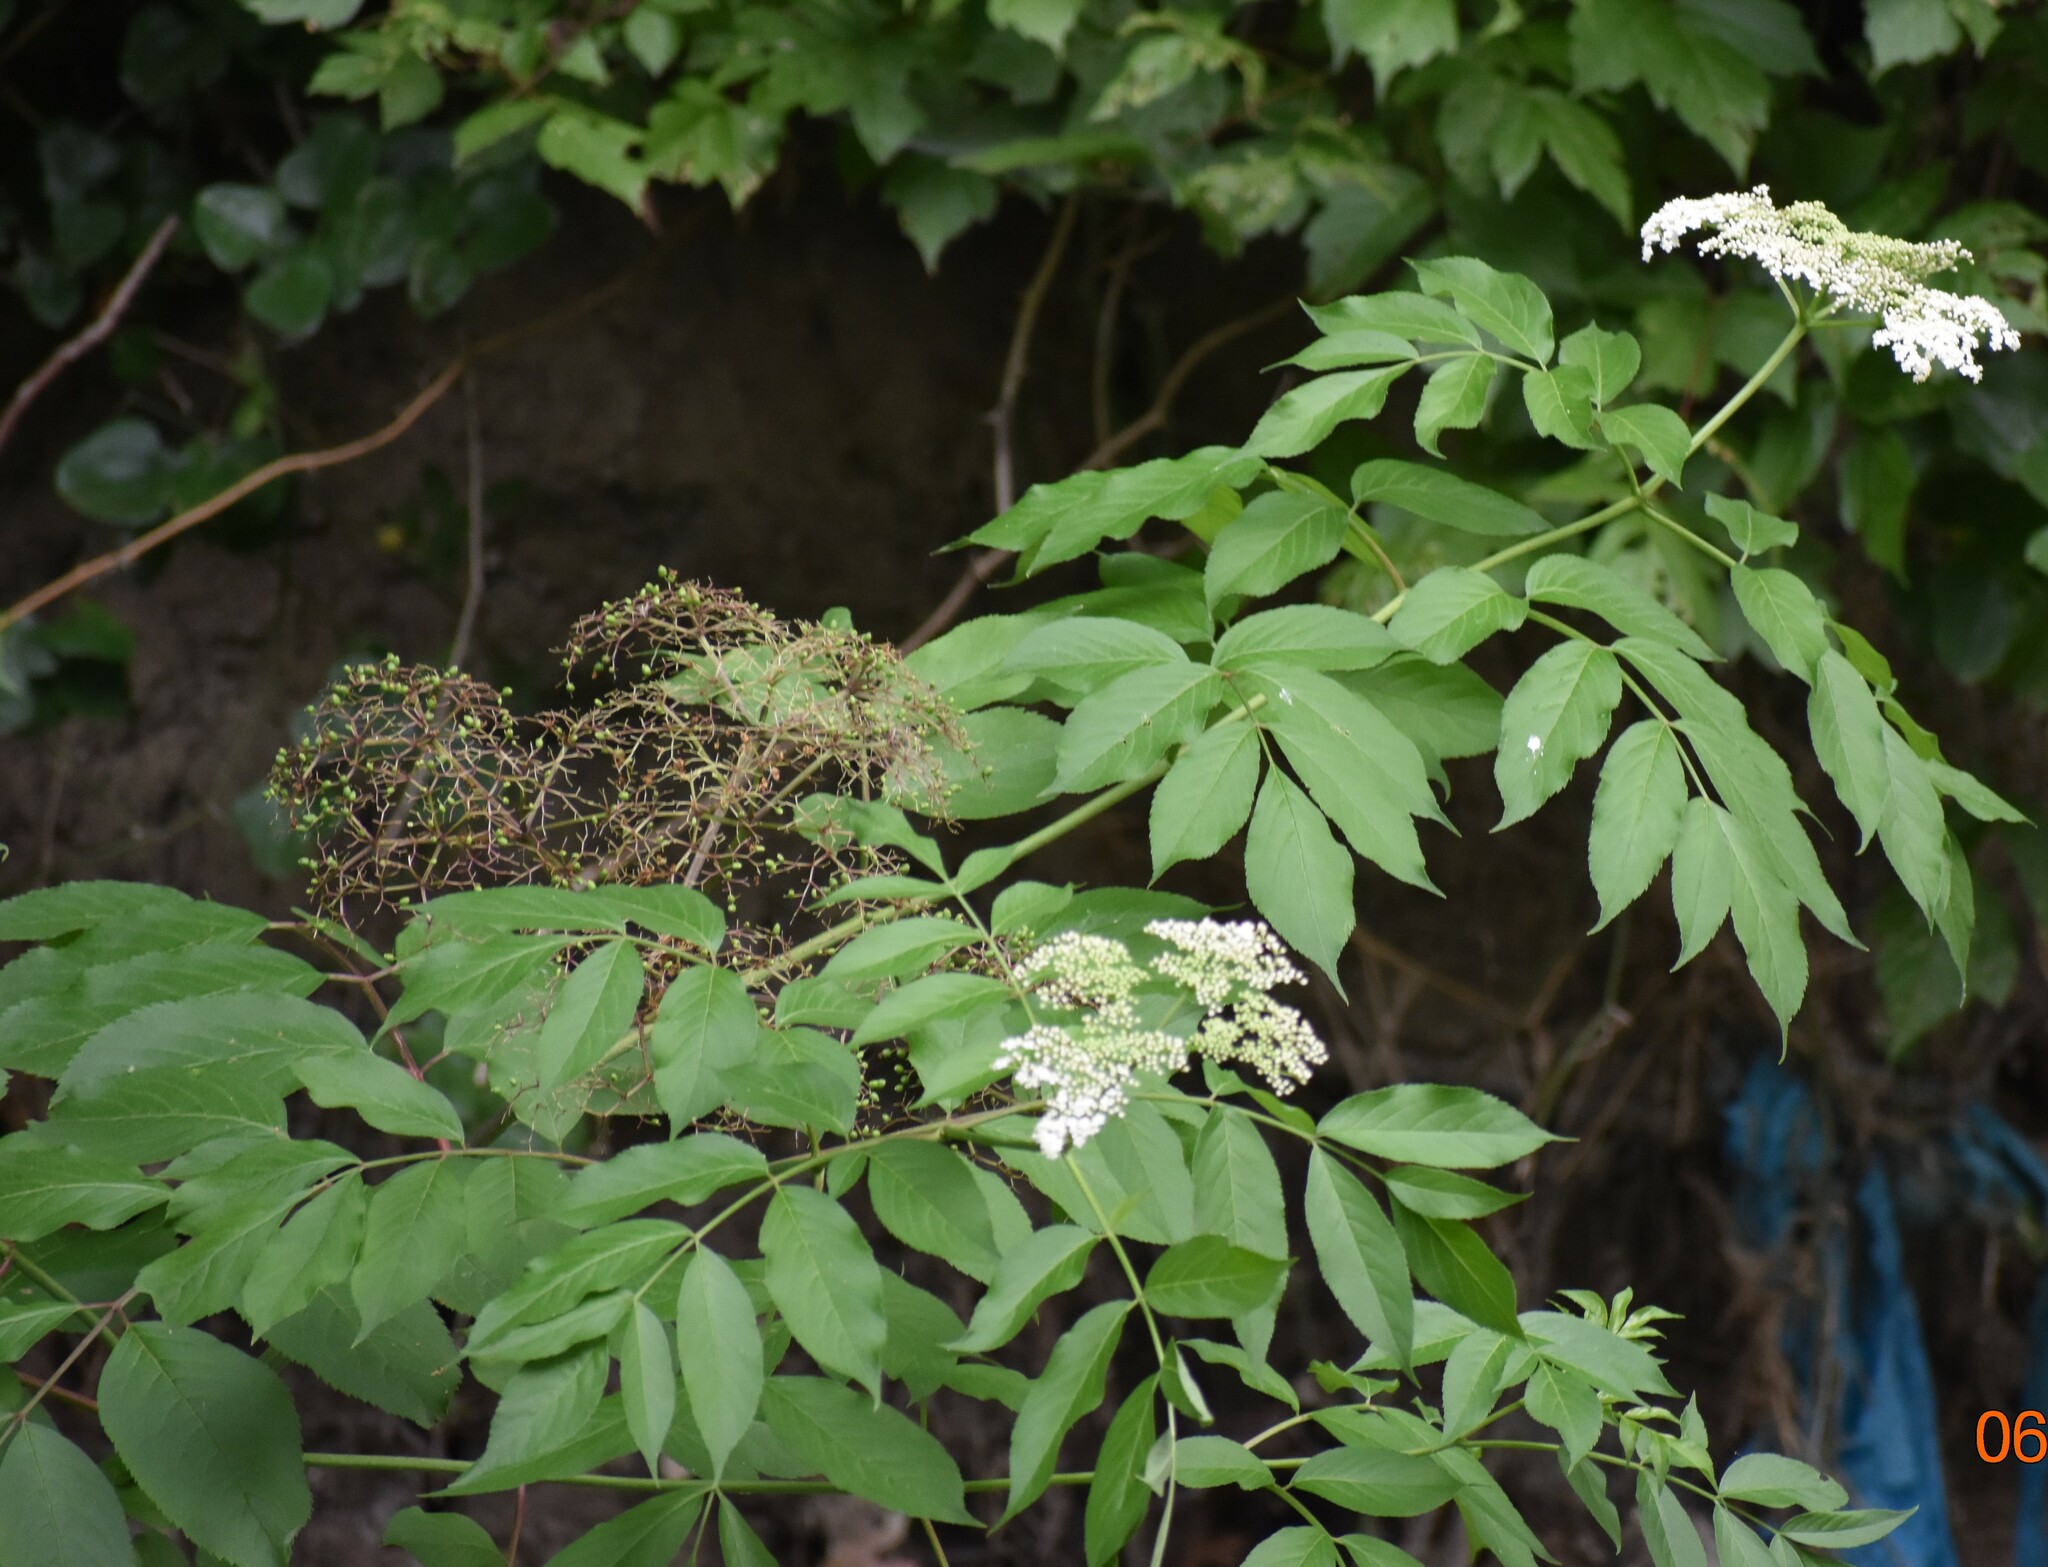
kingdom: Plantae
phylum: Tracheophyta
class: Magnoliopsida
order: Dipsacales
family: Viburnaceae
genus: Sambucus
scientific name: Sambucus canadensis
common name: American elder
